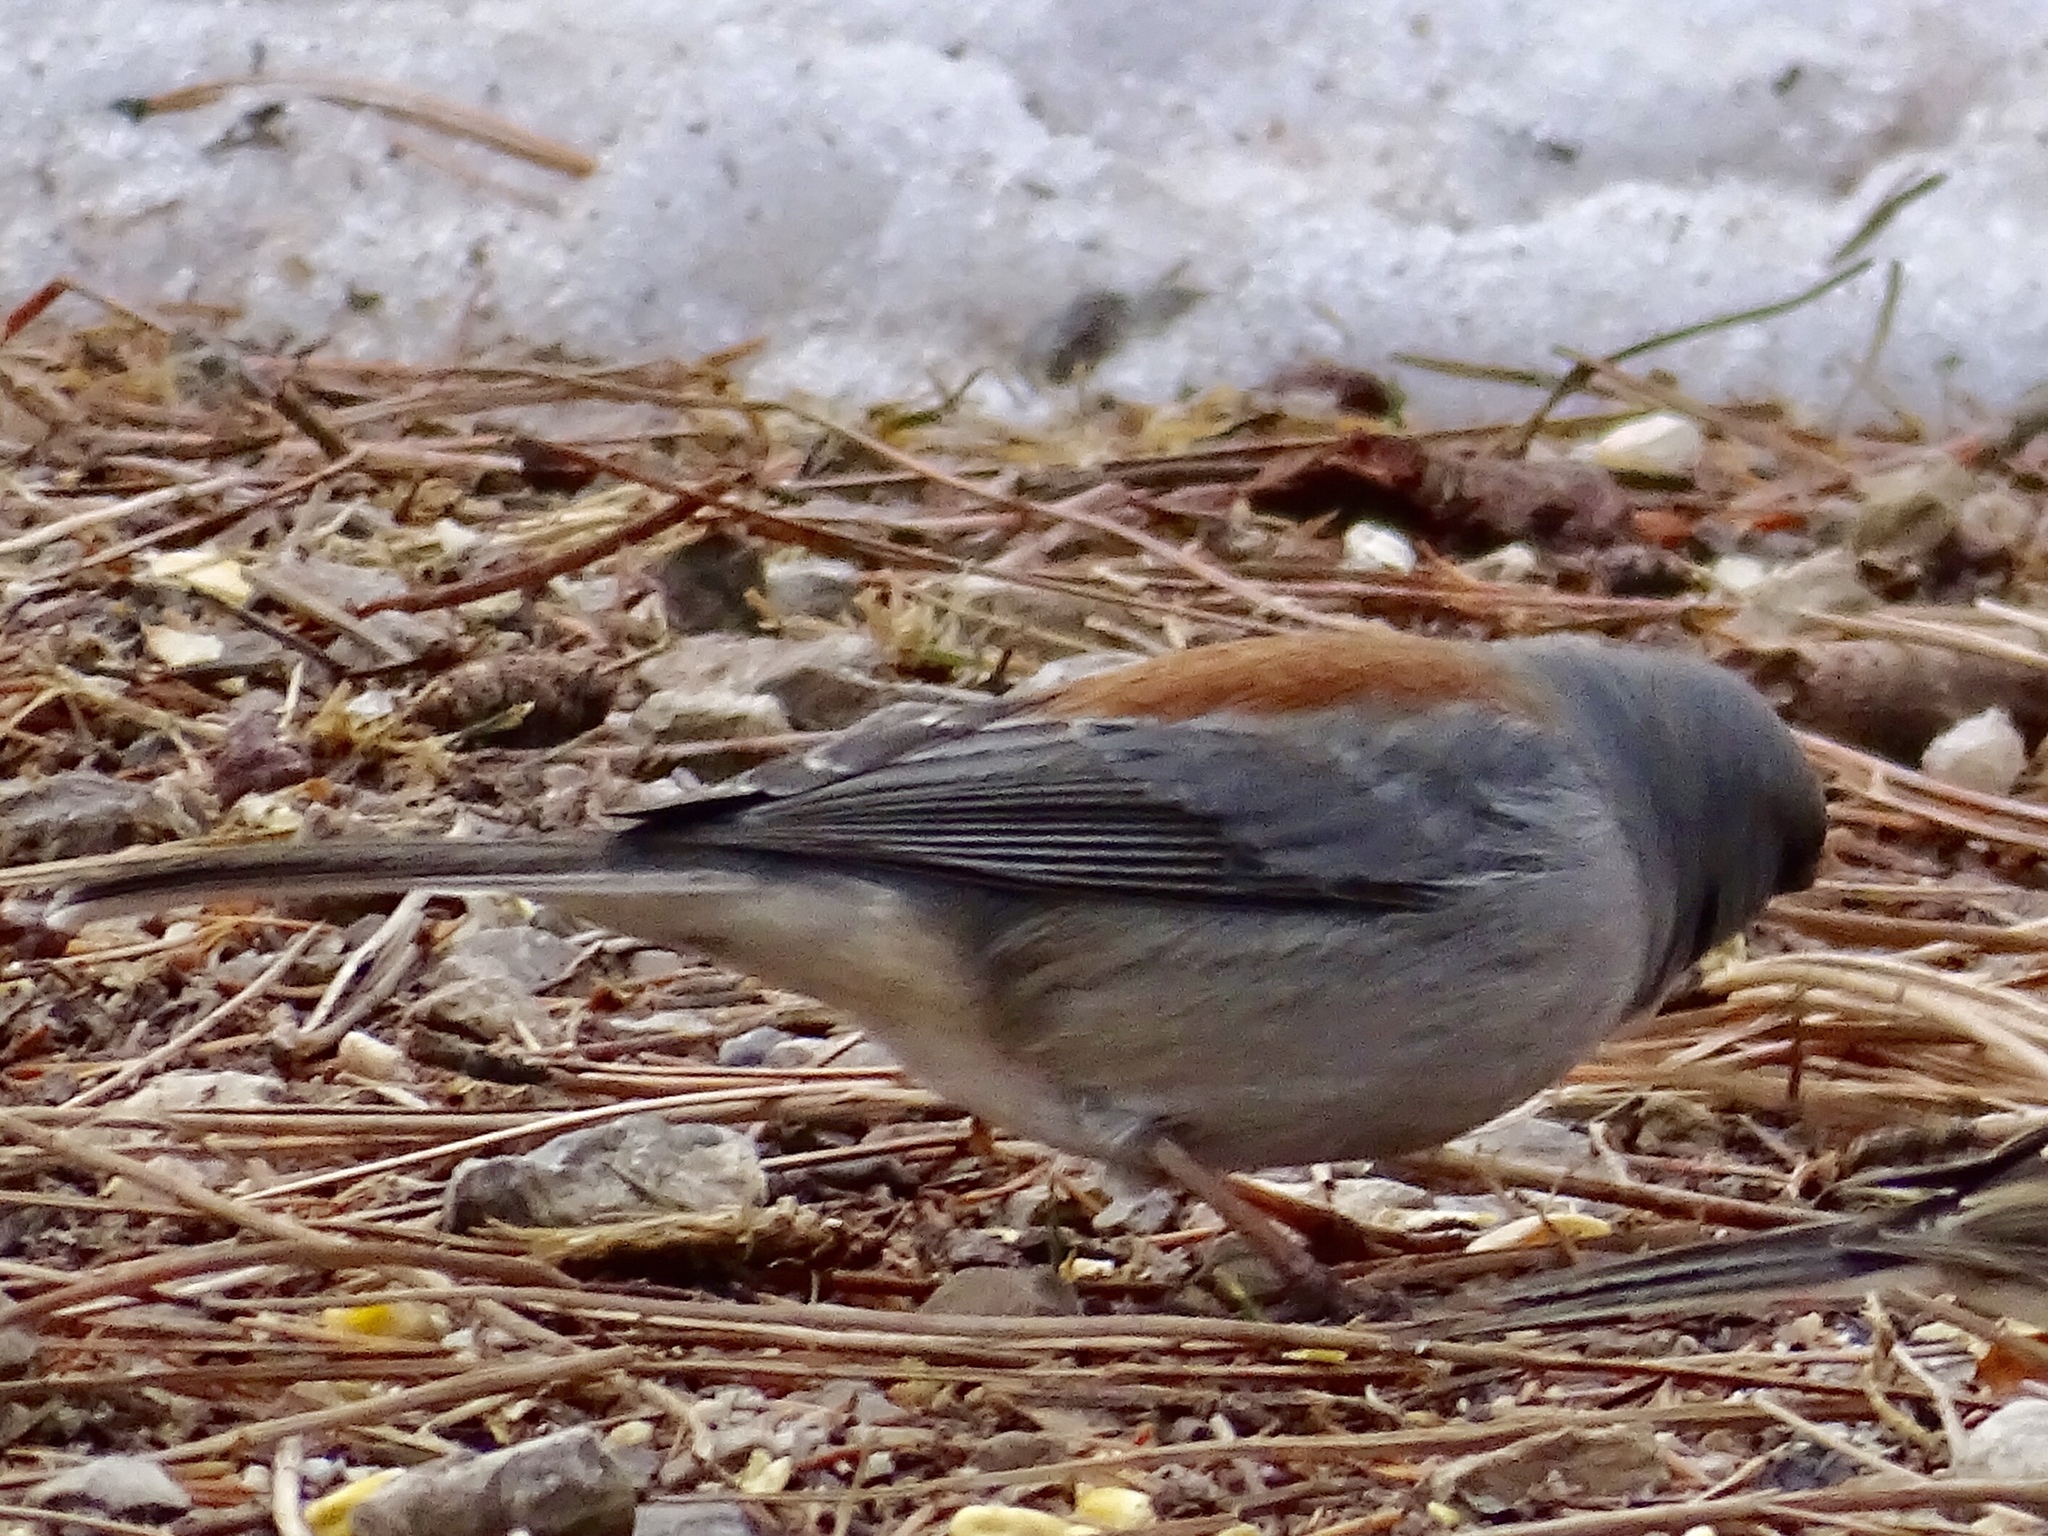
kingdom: Animalia
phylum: Chordata
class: Aves
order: Passeriformes
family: Passerellidae
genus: Junco
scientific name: Junco hyemalis
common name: Dark-eyed junco
